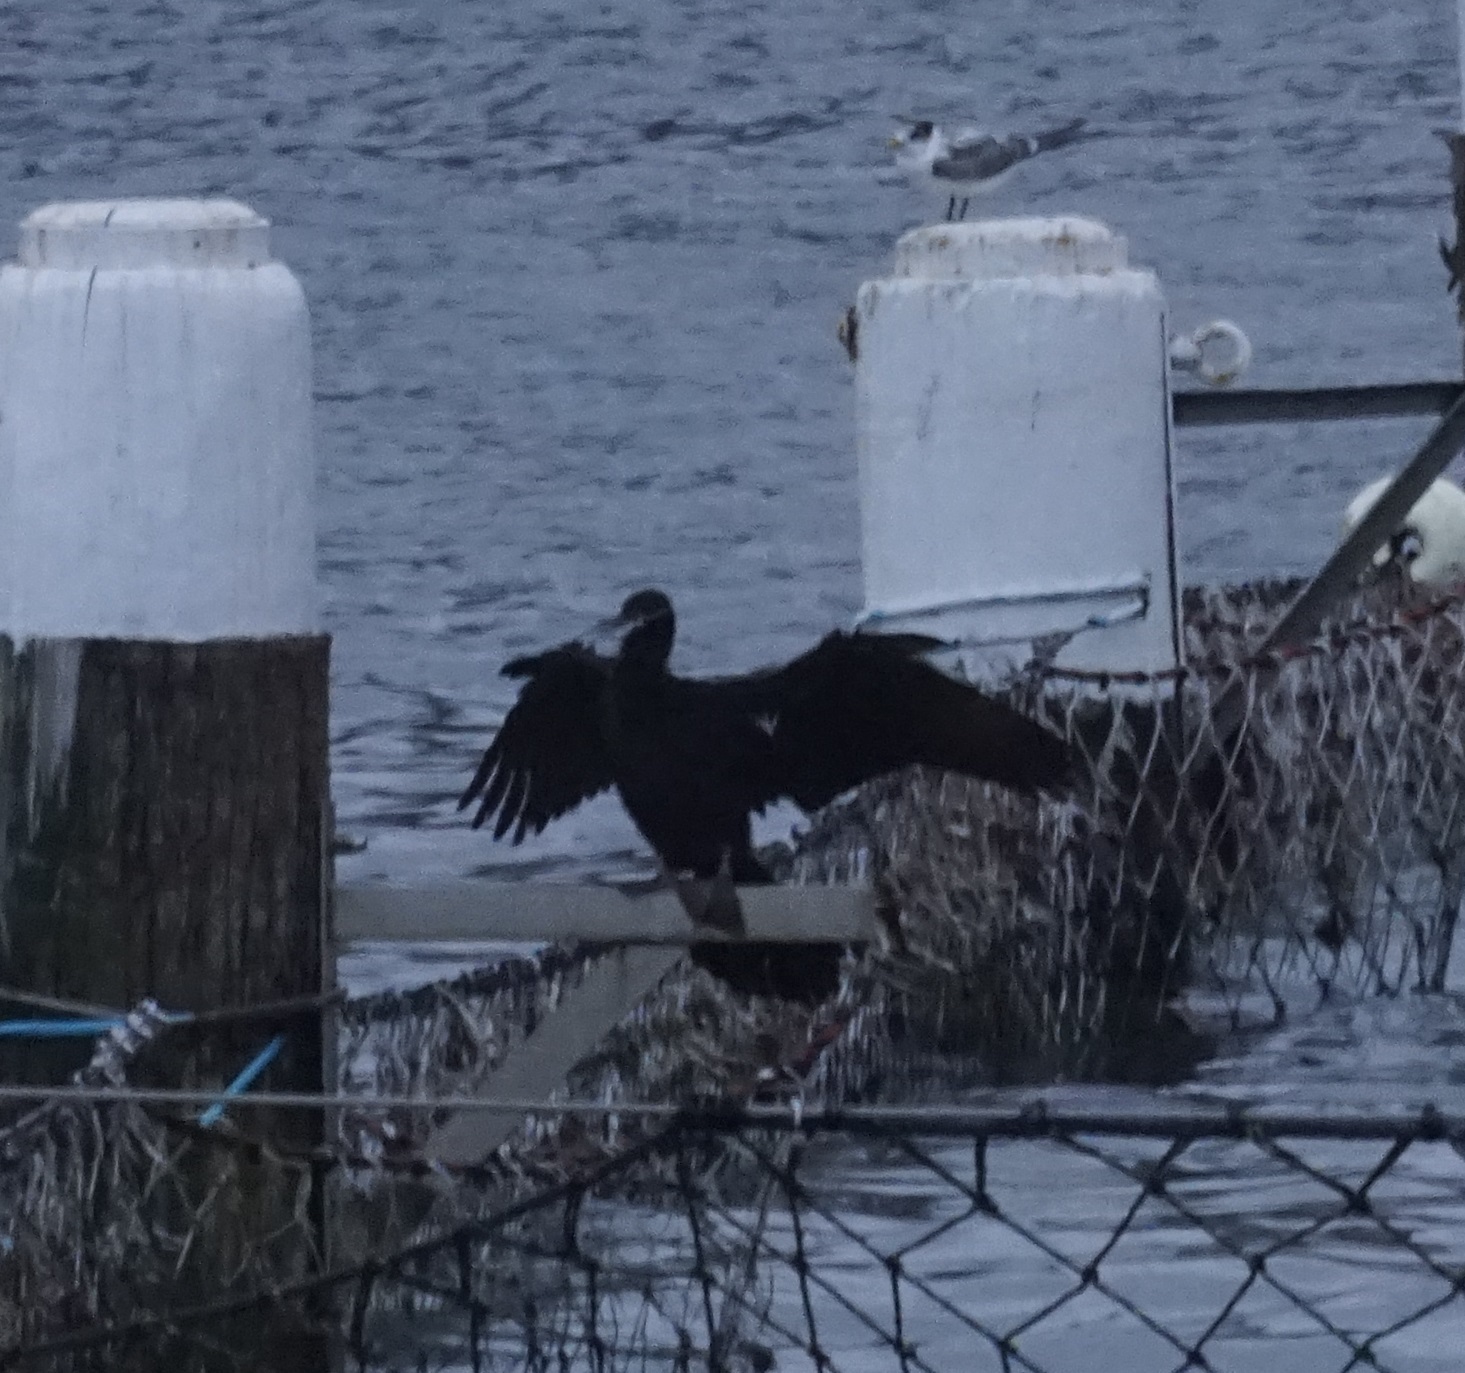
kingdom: Animalia
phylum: Chordata
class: Aves
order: Suliformes
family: Anhingidae
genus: Anhinga
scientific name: Anhinga novaehollandiae
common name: Australasian darter
